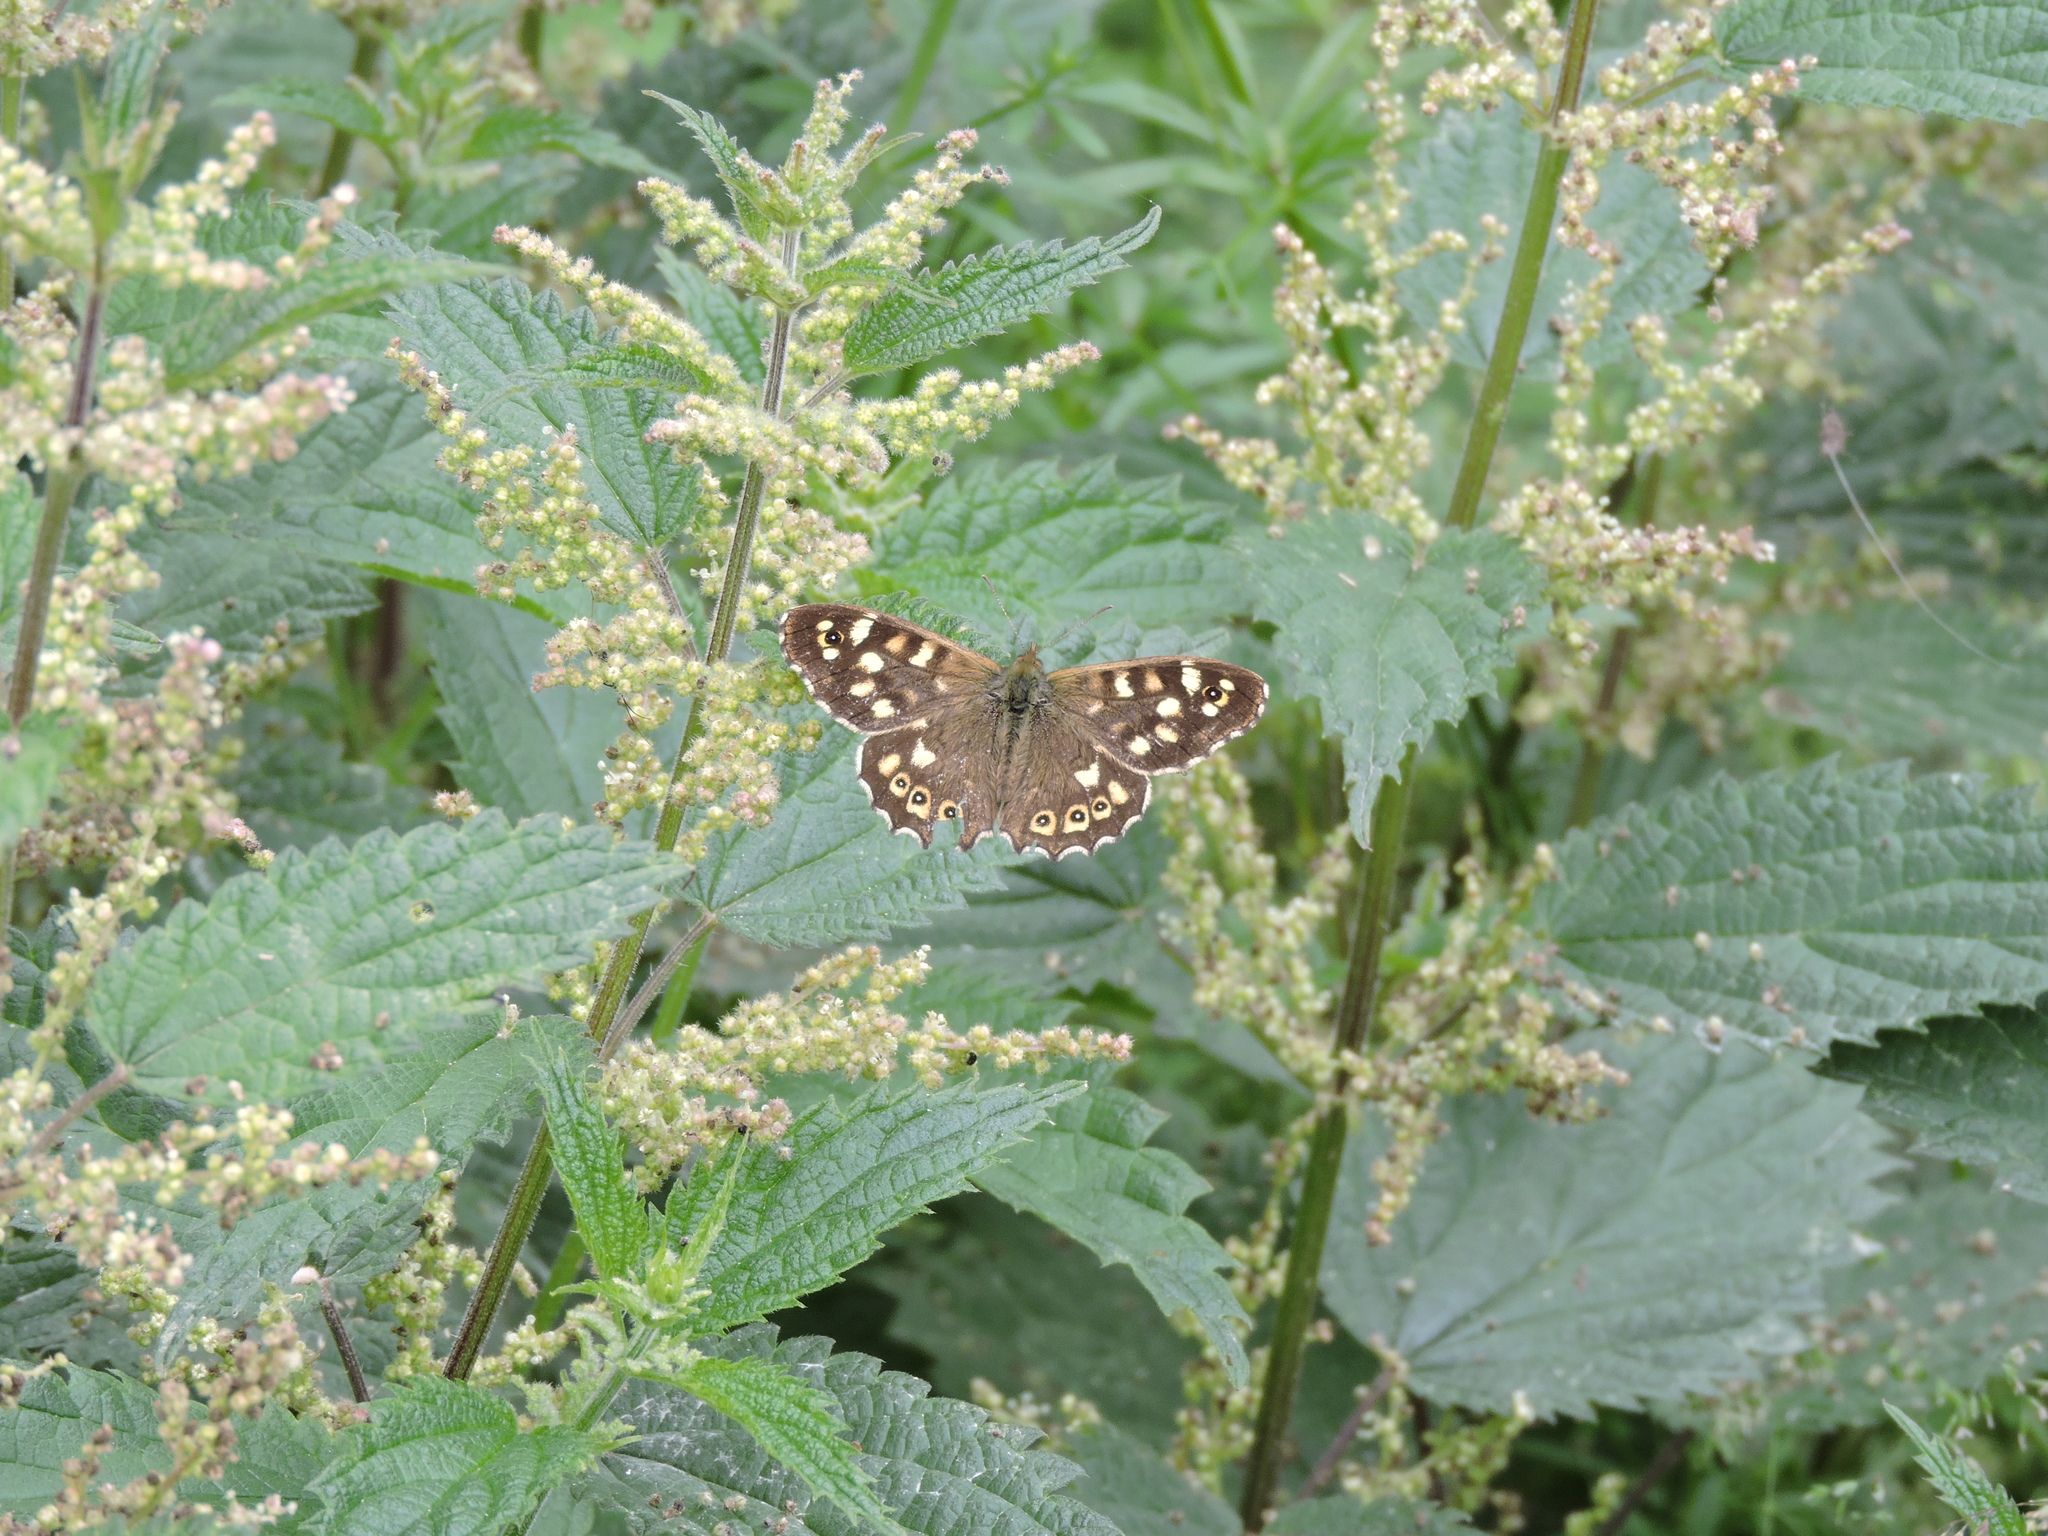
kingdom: Animalia
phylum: Arthropoda
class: Insecta
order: Lepidoptera
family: Nymphalidae
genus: Pararge
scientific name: Pararge aegeria
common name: Speckled wood
